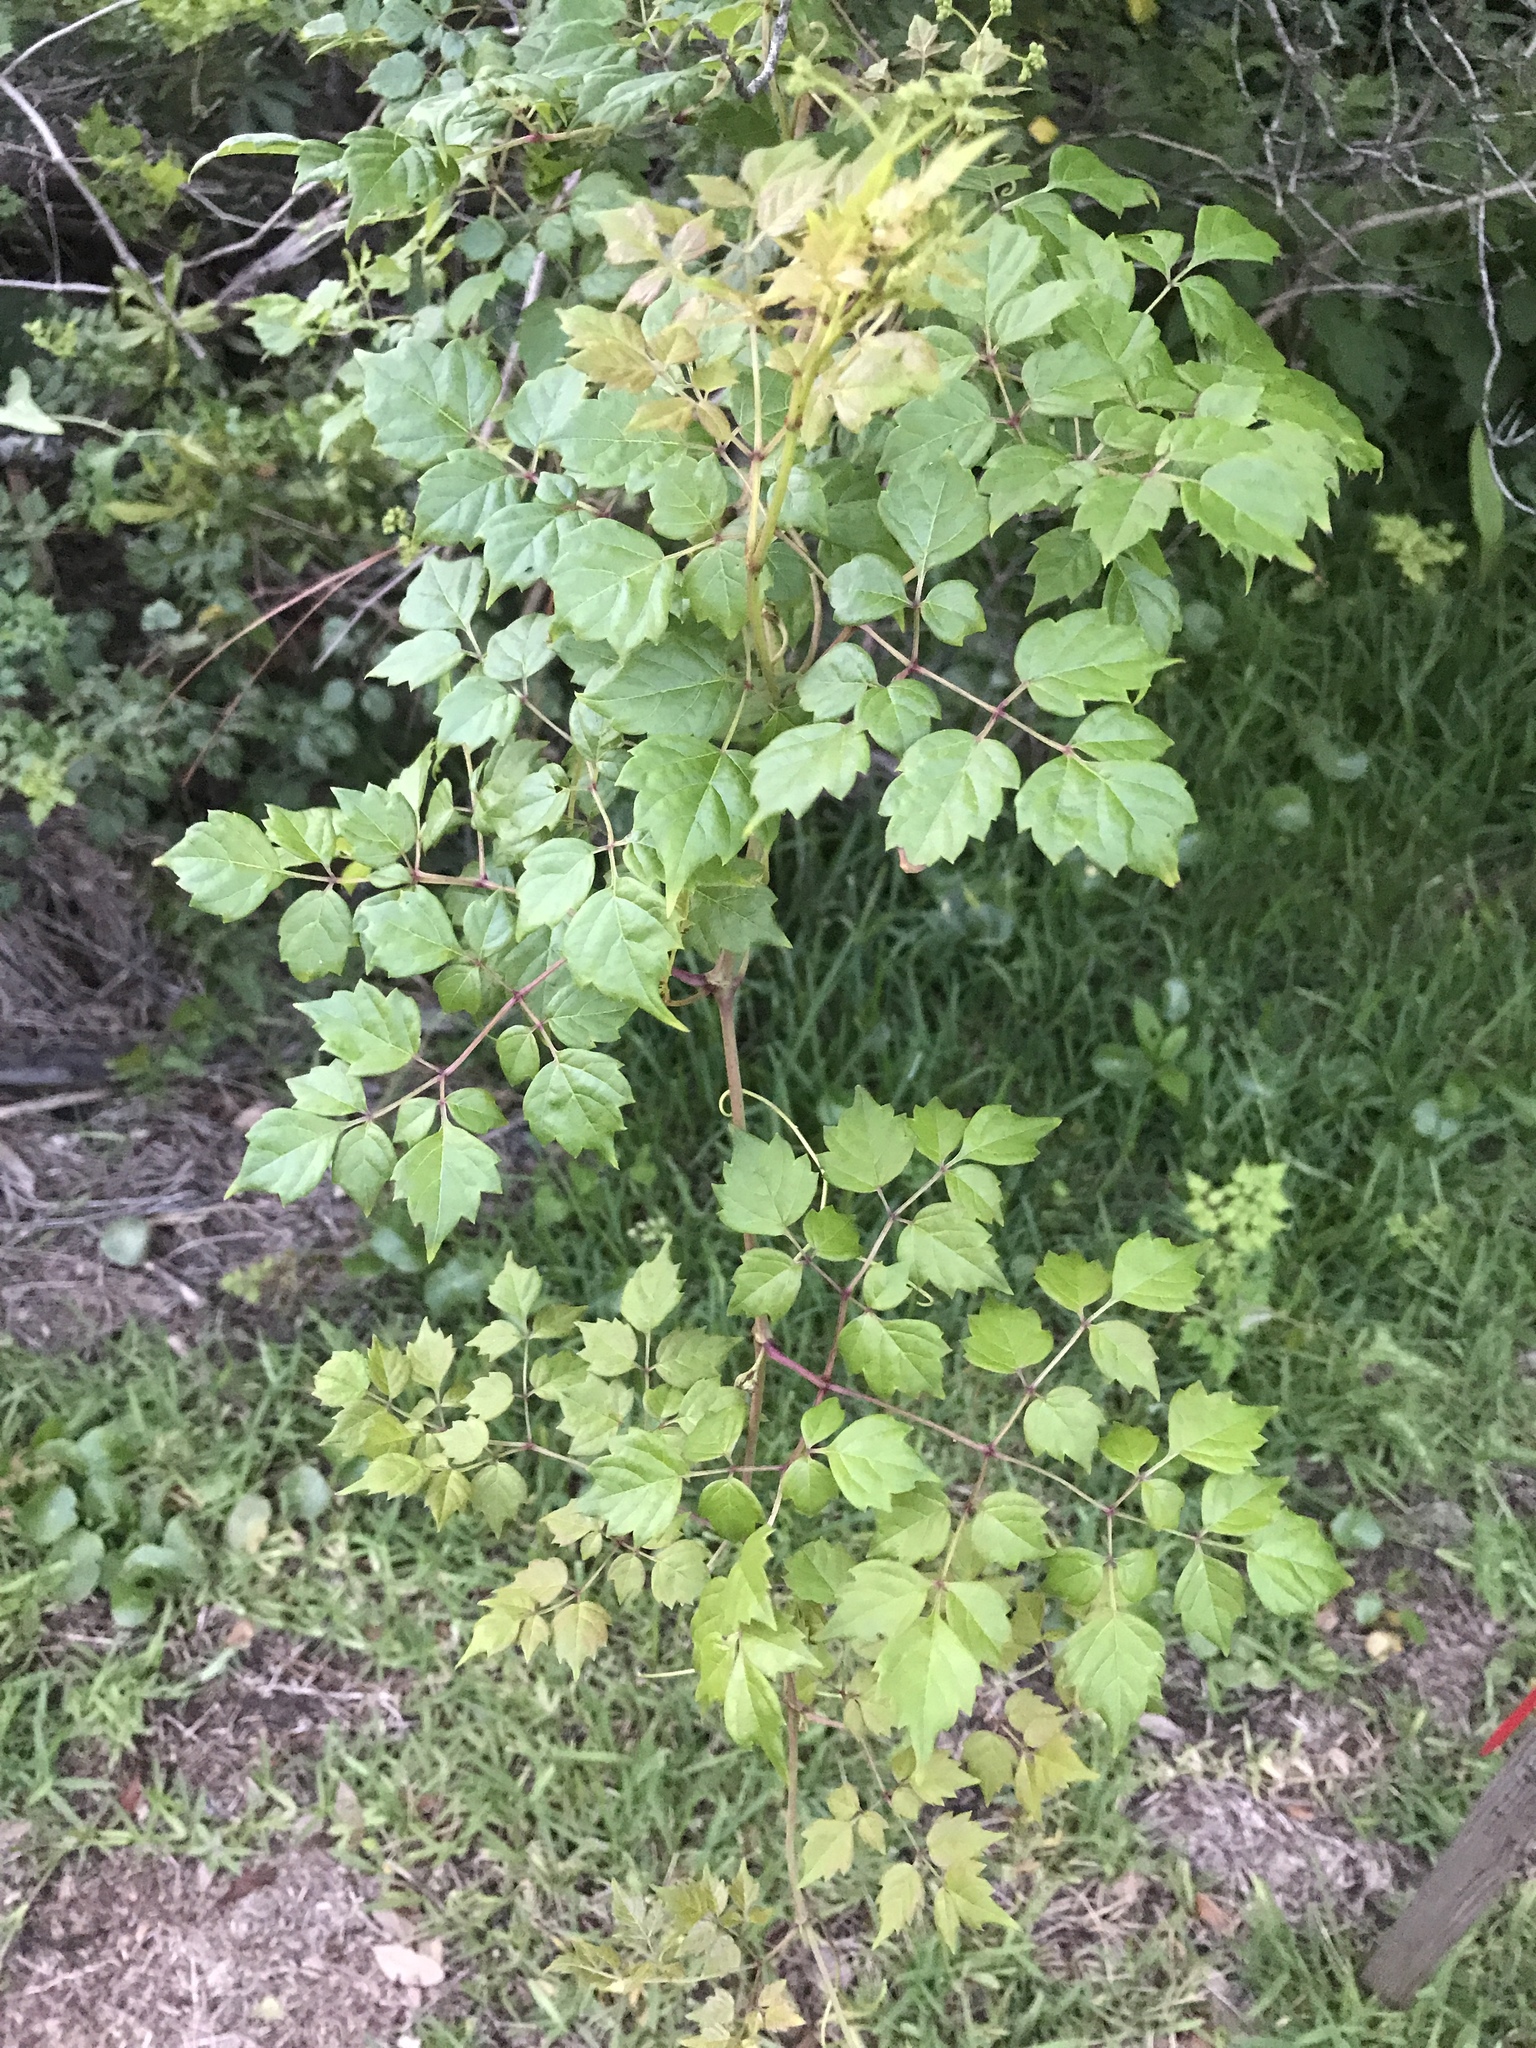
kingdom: Plantae
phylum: Tracheophyta
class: Magnoliopsida
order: Vitales
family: Vitaceae
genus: Nekemias
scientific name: Nekemias arborea
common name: Peppervine
